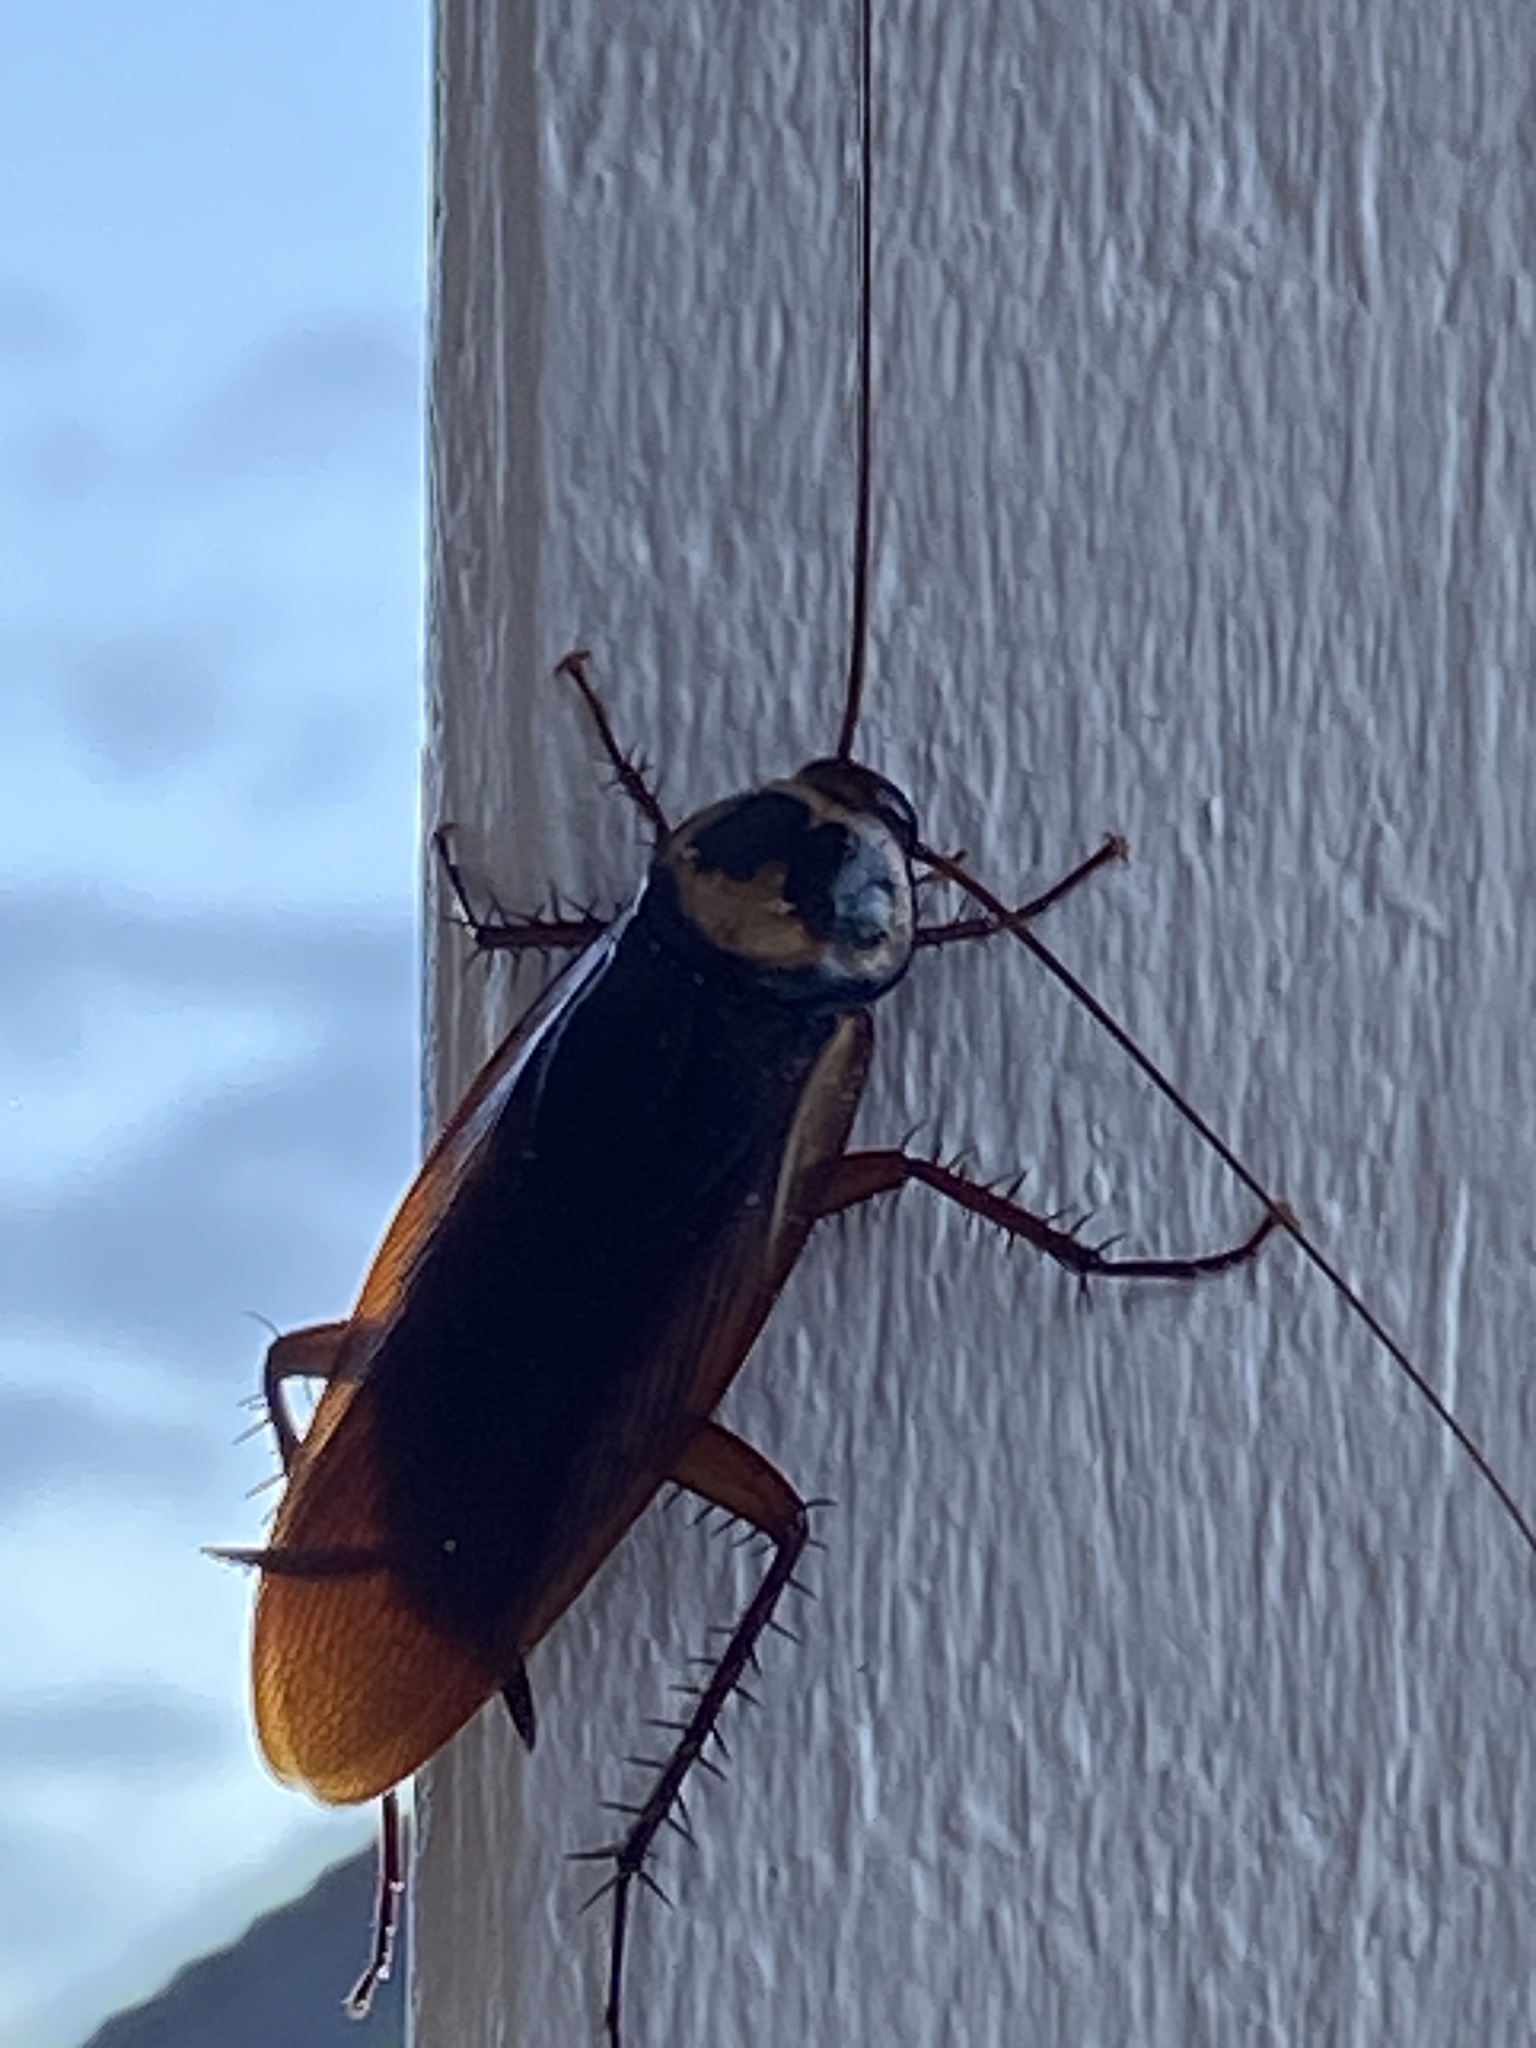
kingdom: Animalia
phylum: Arthropoda
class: Insecta
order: Blattodea
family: Blattidae
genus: Periplaneta
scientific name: Periplaneta australasiae
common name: Australian cockroach
